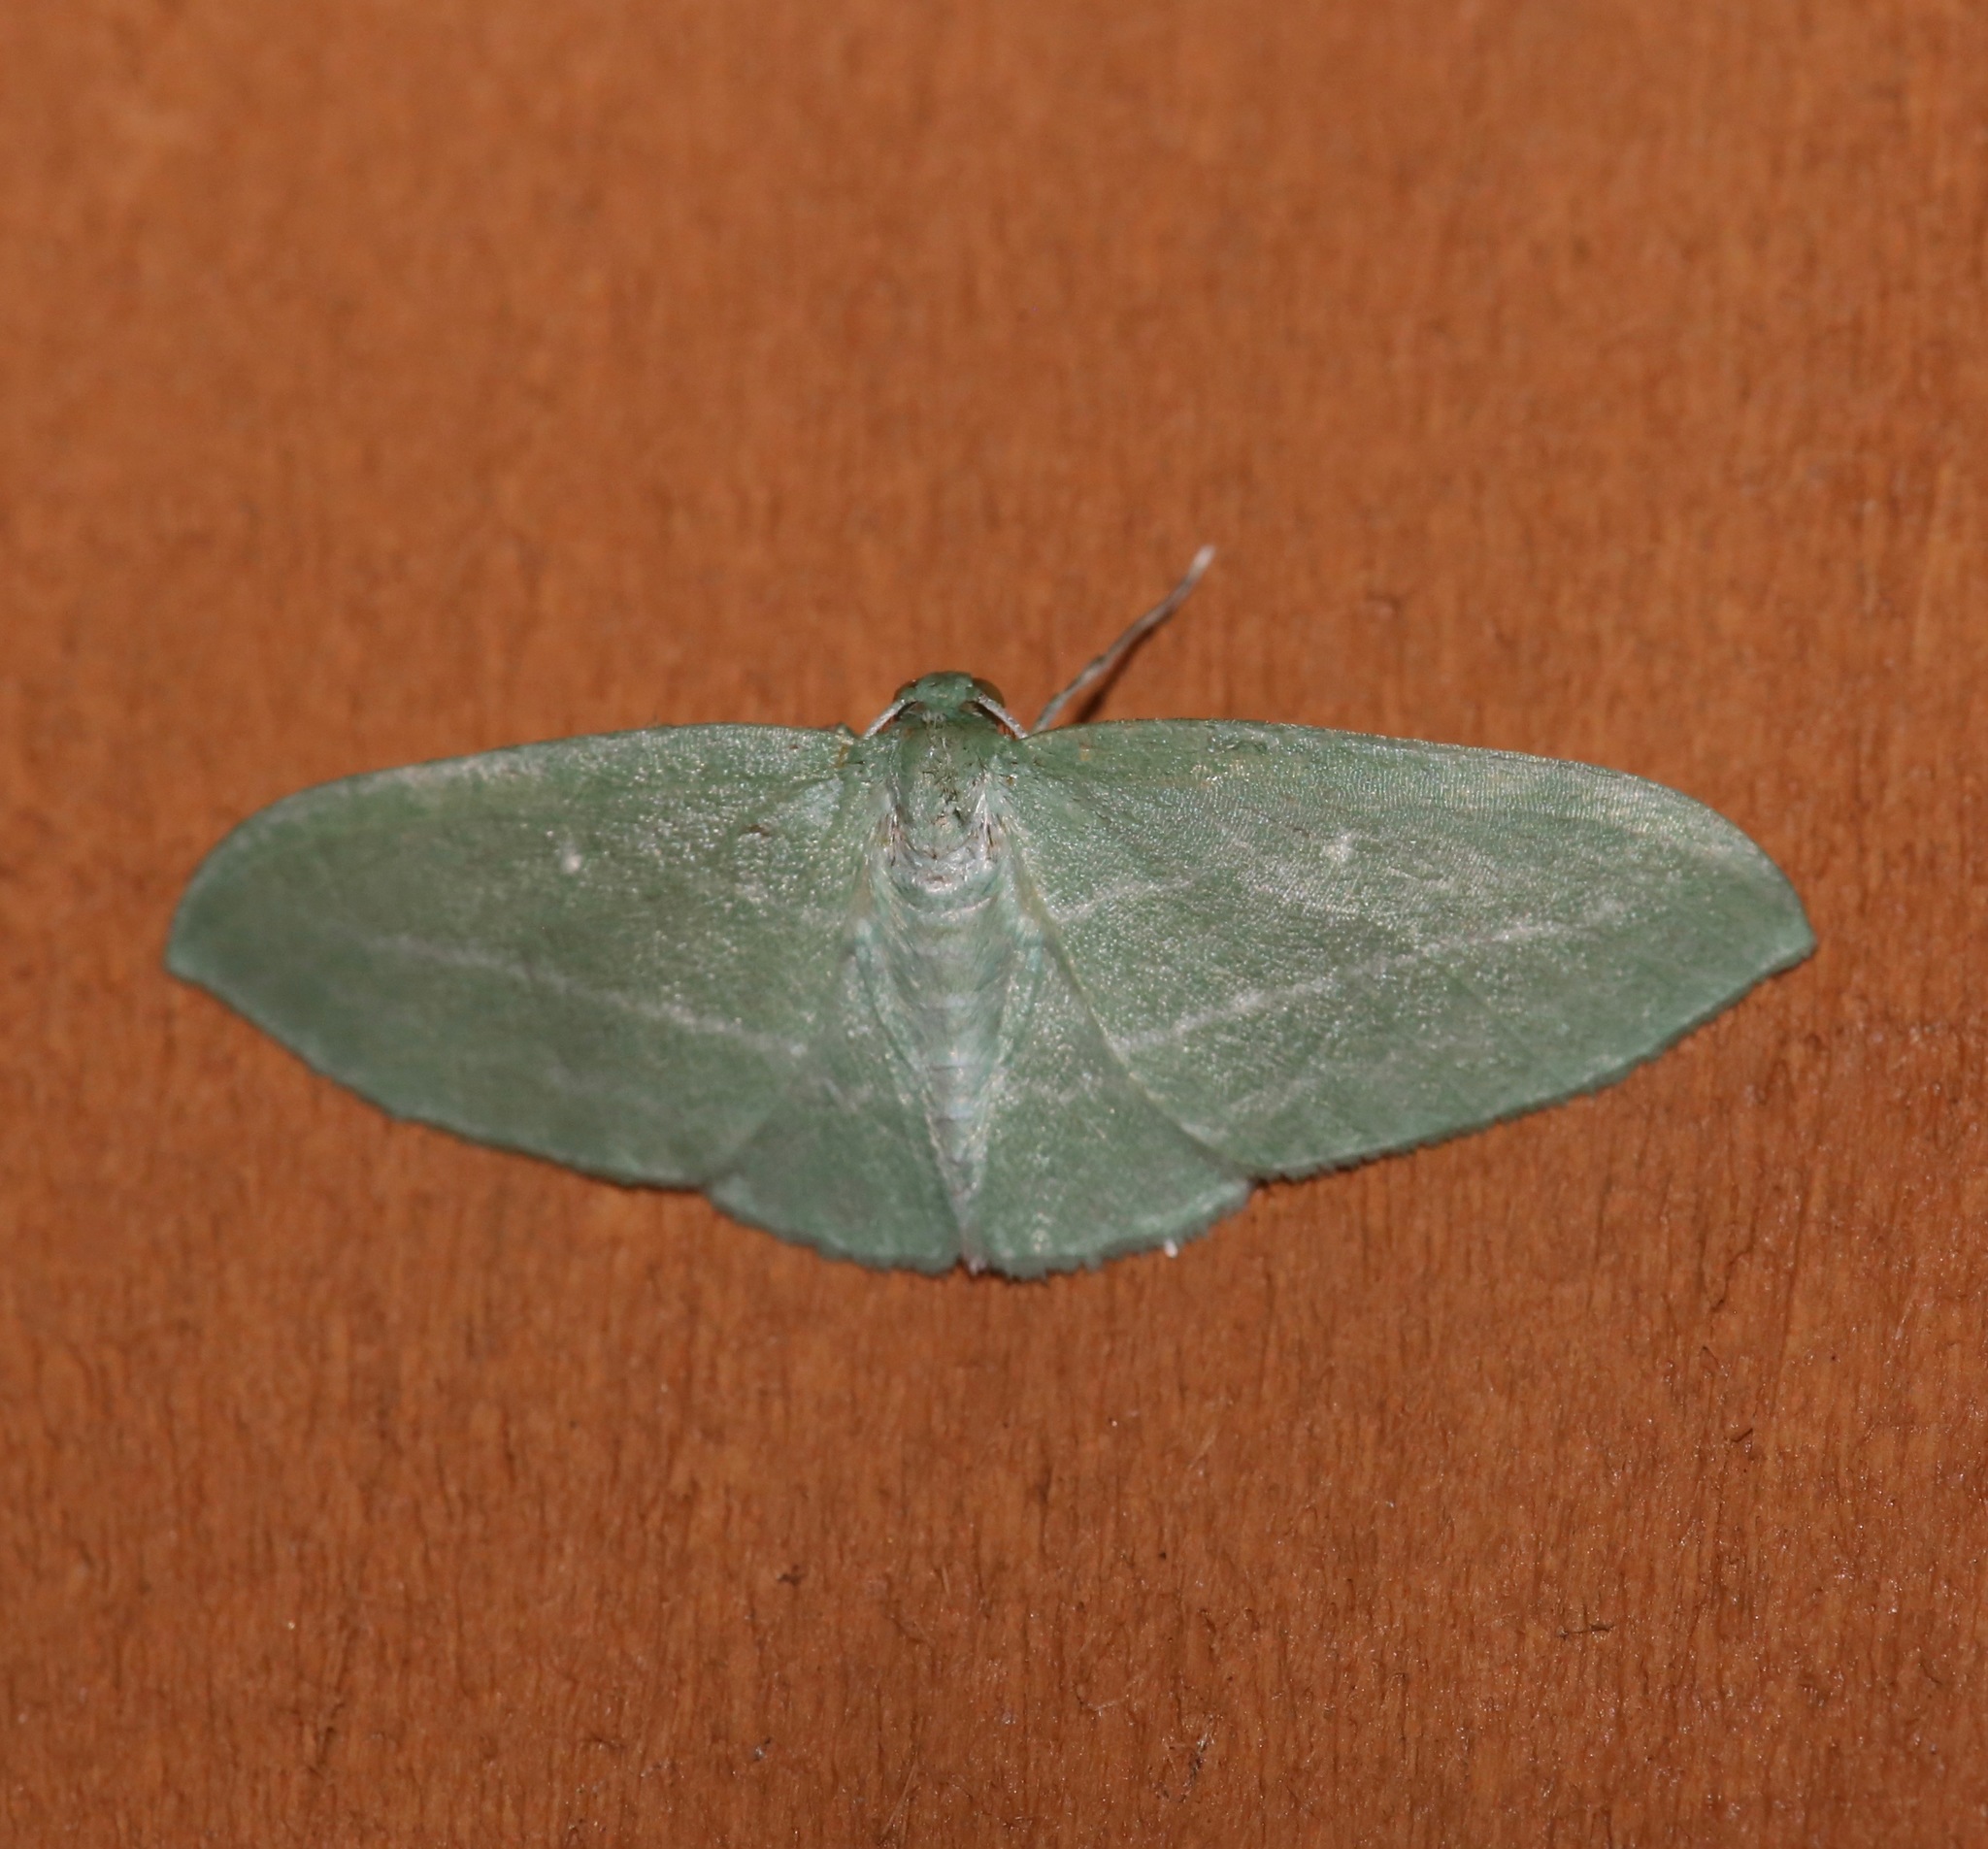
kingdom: Animalia
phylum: Arthropoda
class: Insecta
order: Lepidoptera
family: Geometridae
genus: Dyspteris
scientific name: Dyspteris abortivaria
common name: Bad-wing
